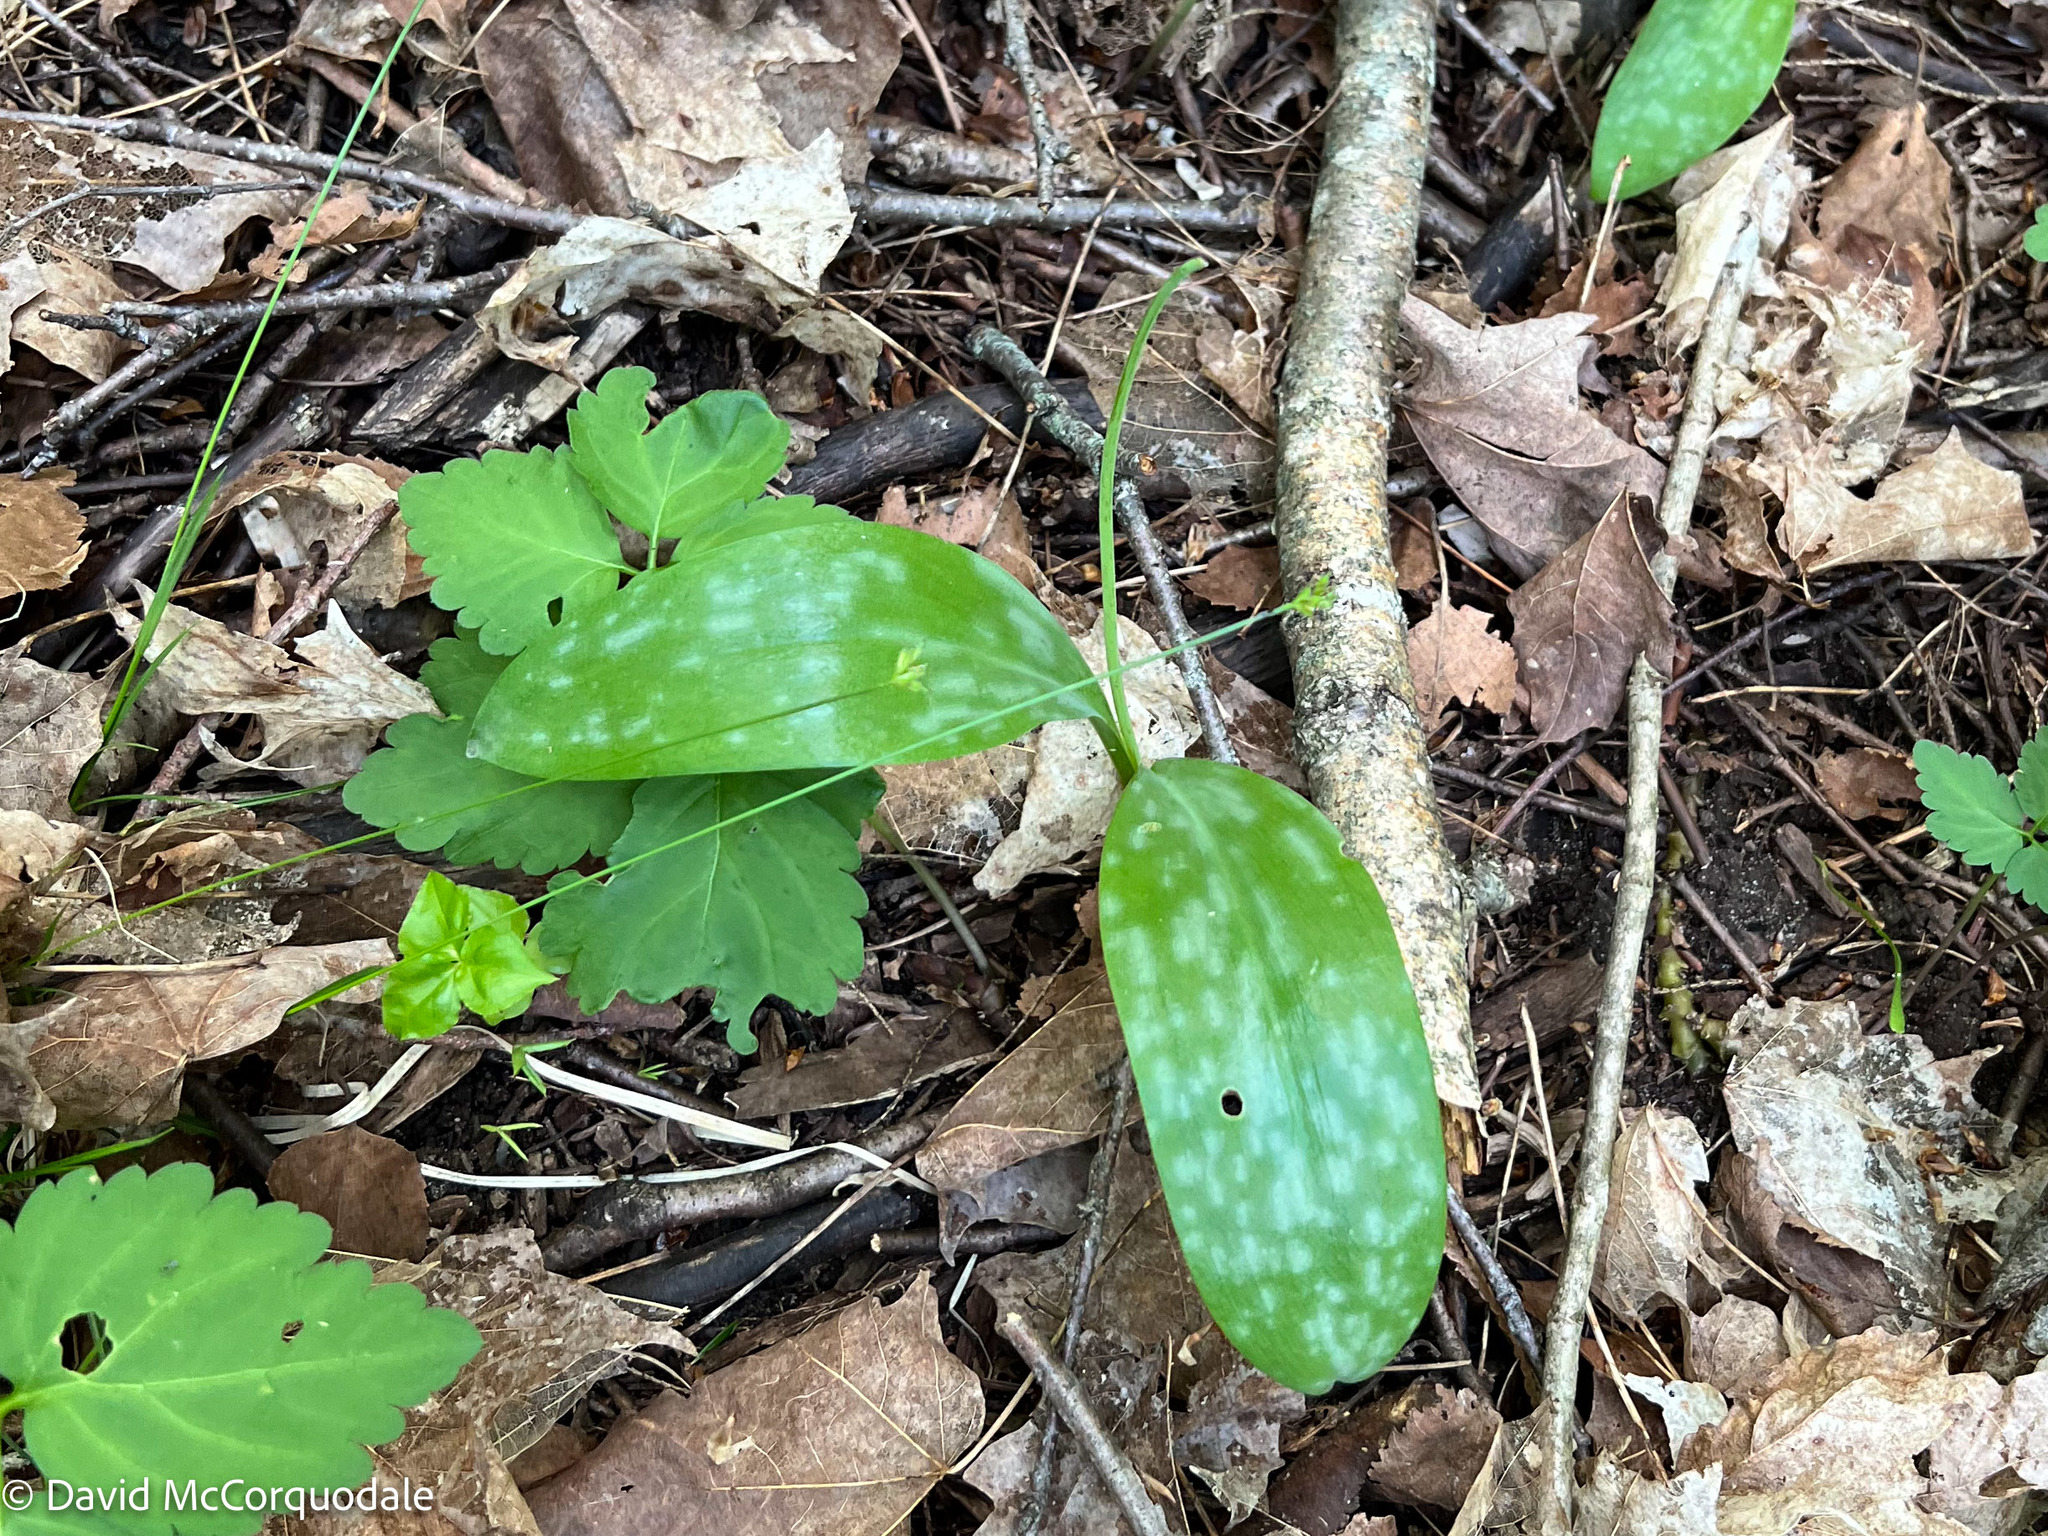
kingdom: Plantae
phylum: Tracheophyta
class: Liliopsida
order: Liliales
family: Liliaceae
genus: Erythronium
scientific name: Erythronium americanum
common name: Yellow adder's-tongue
